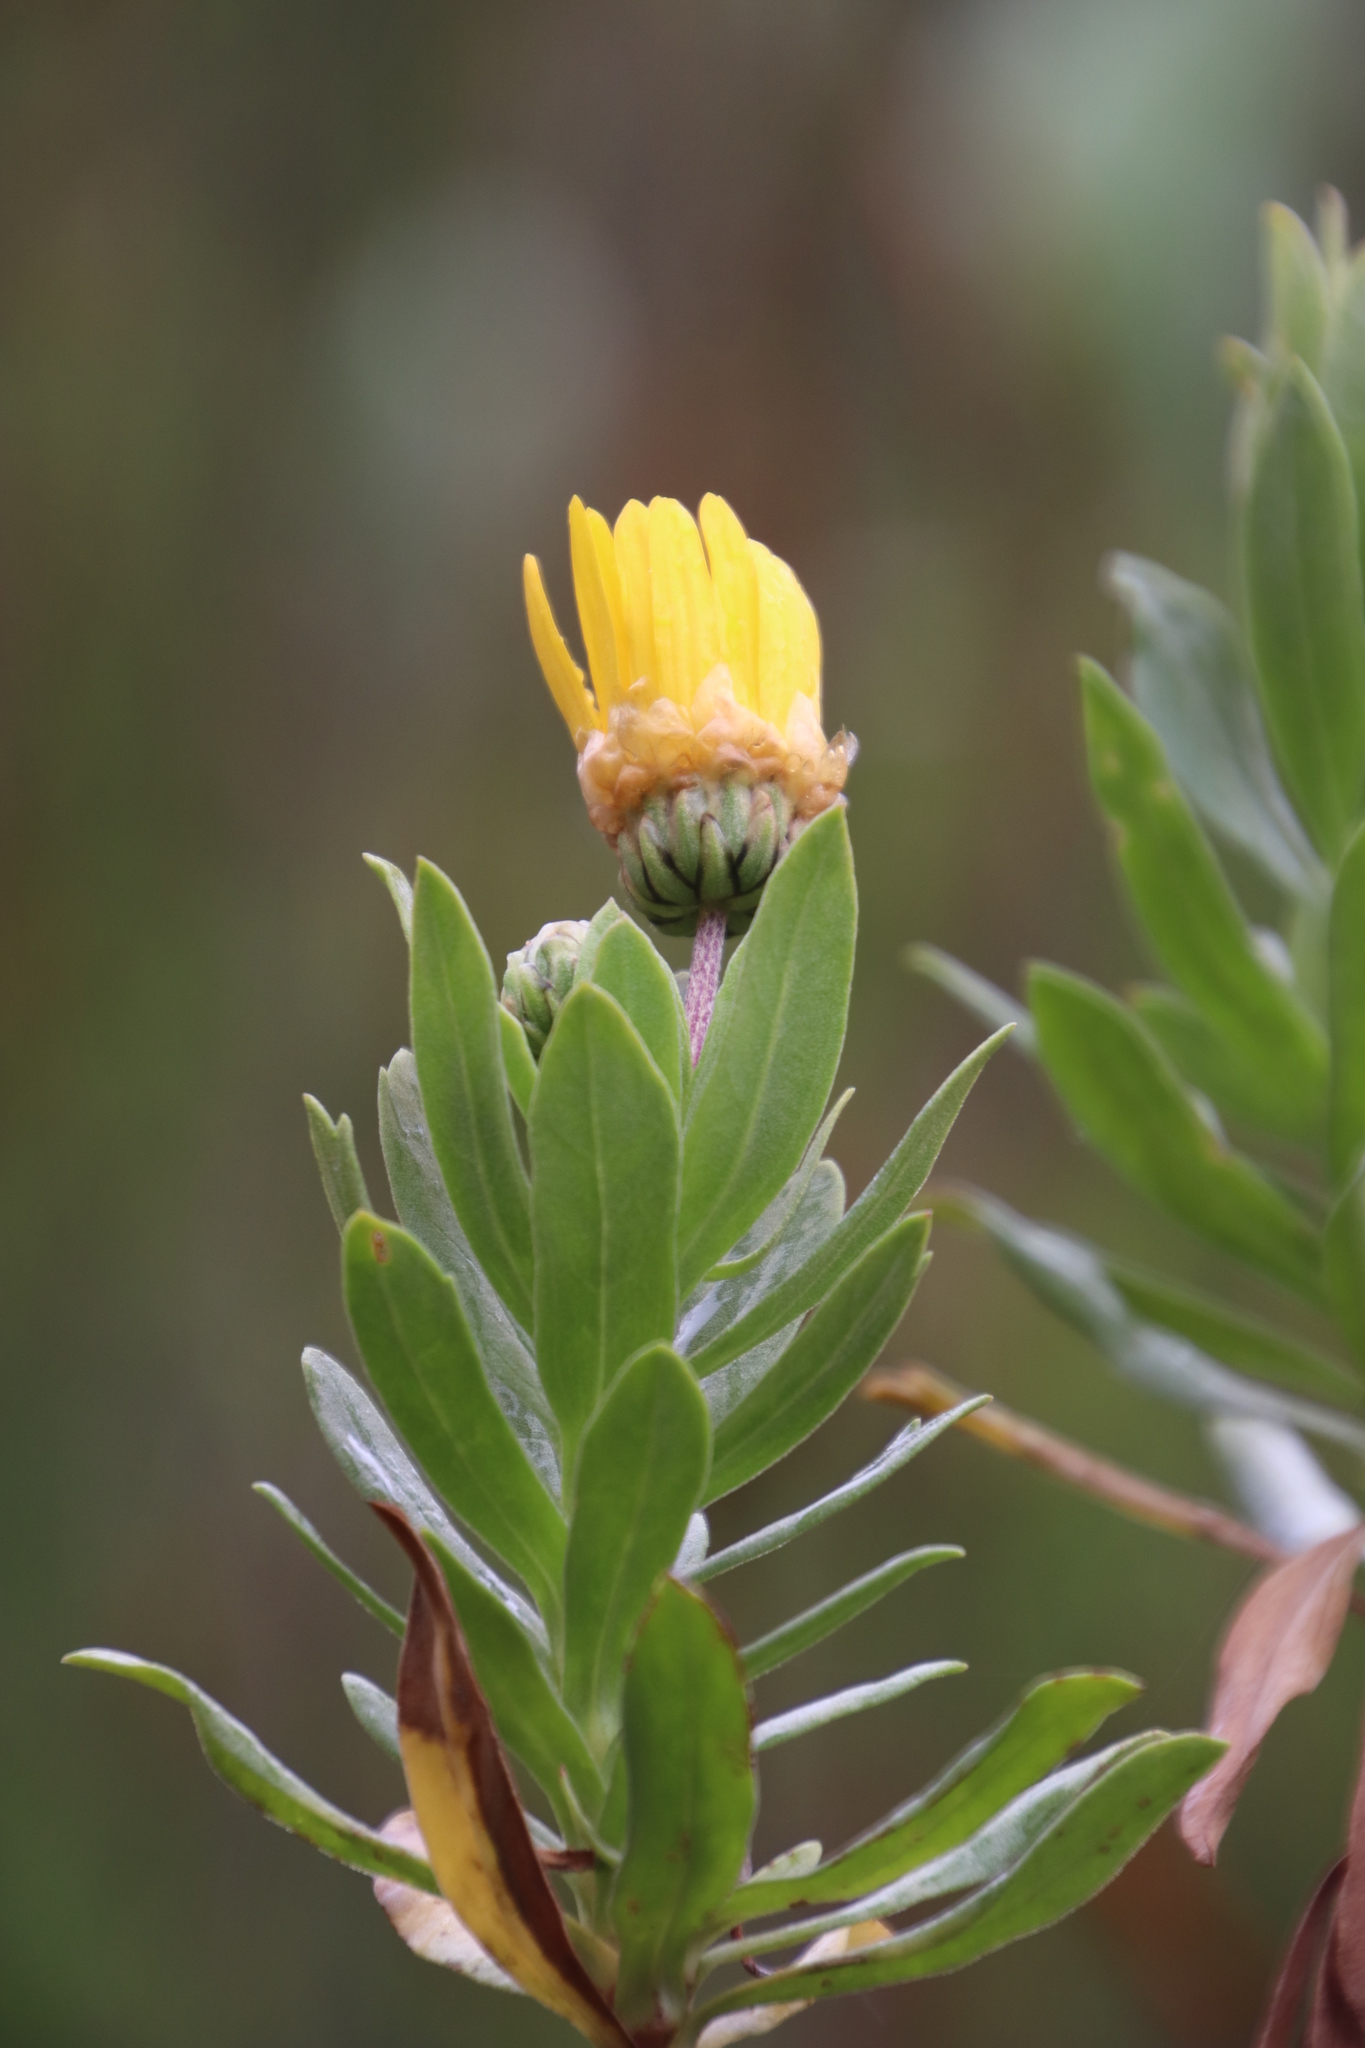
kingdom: Plantae
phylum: Tracheophyta
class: Magnoliopsida
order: Asterales
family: Asteraceae
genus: Ursinia
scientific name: Ursinia eckloniana
